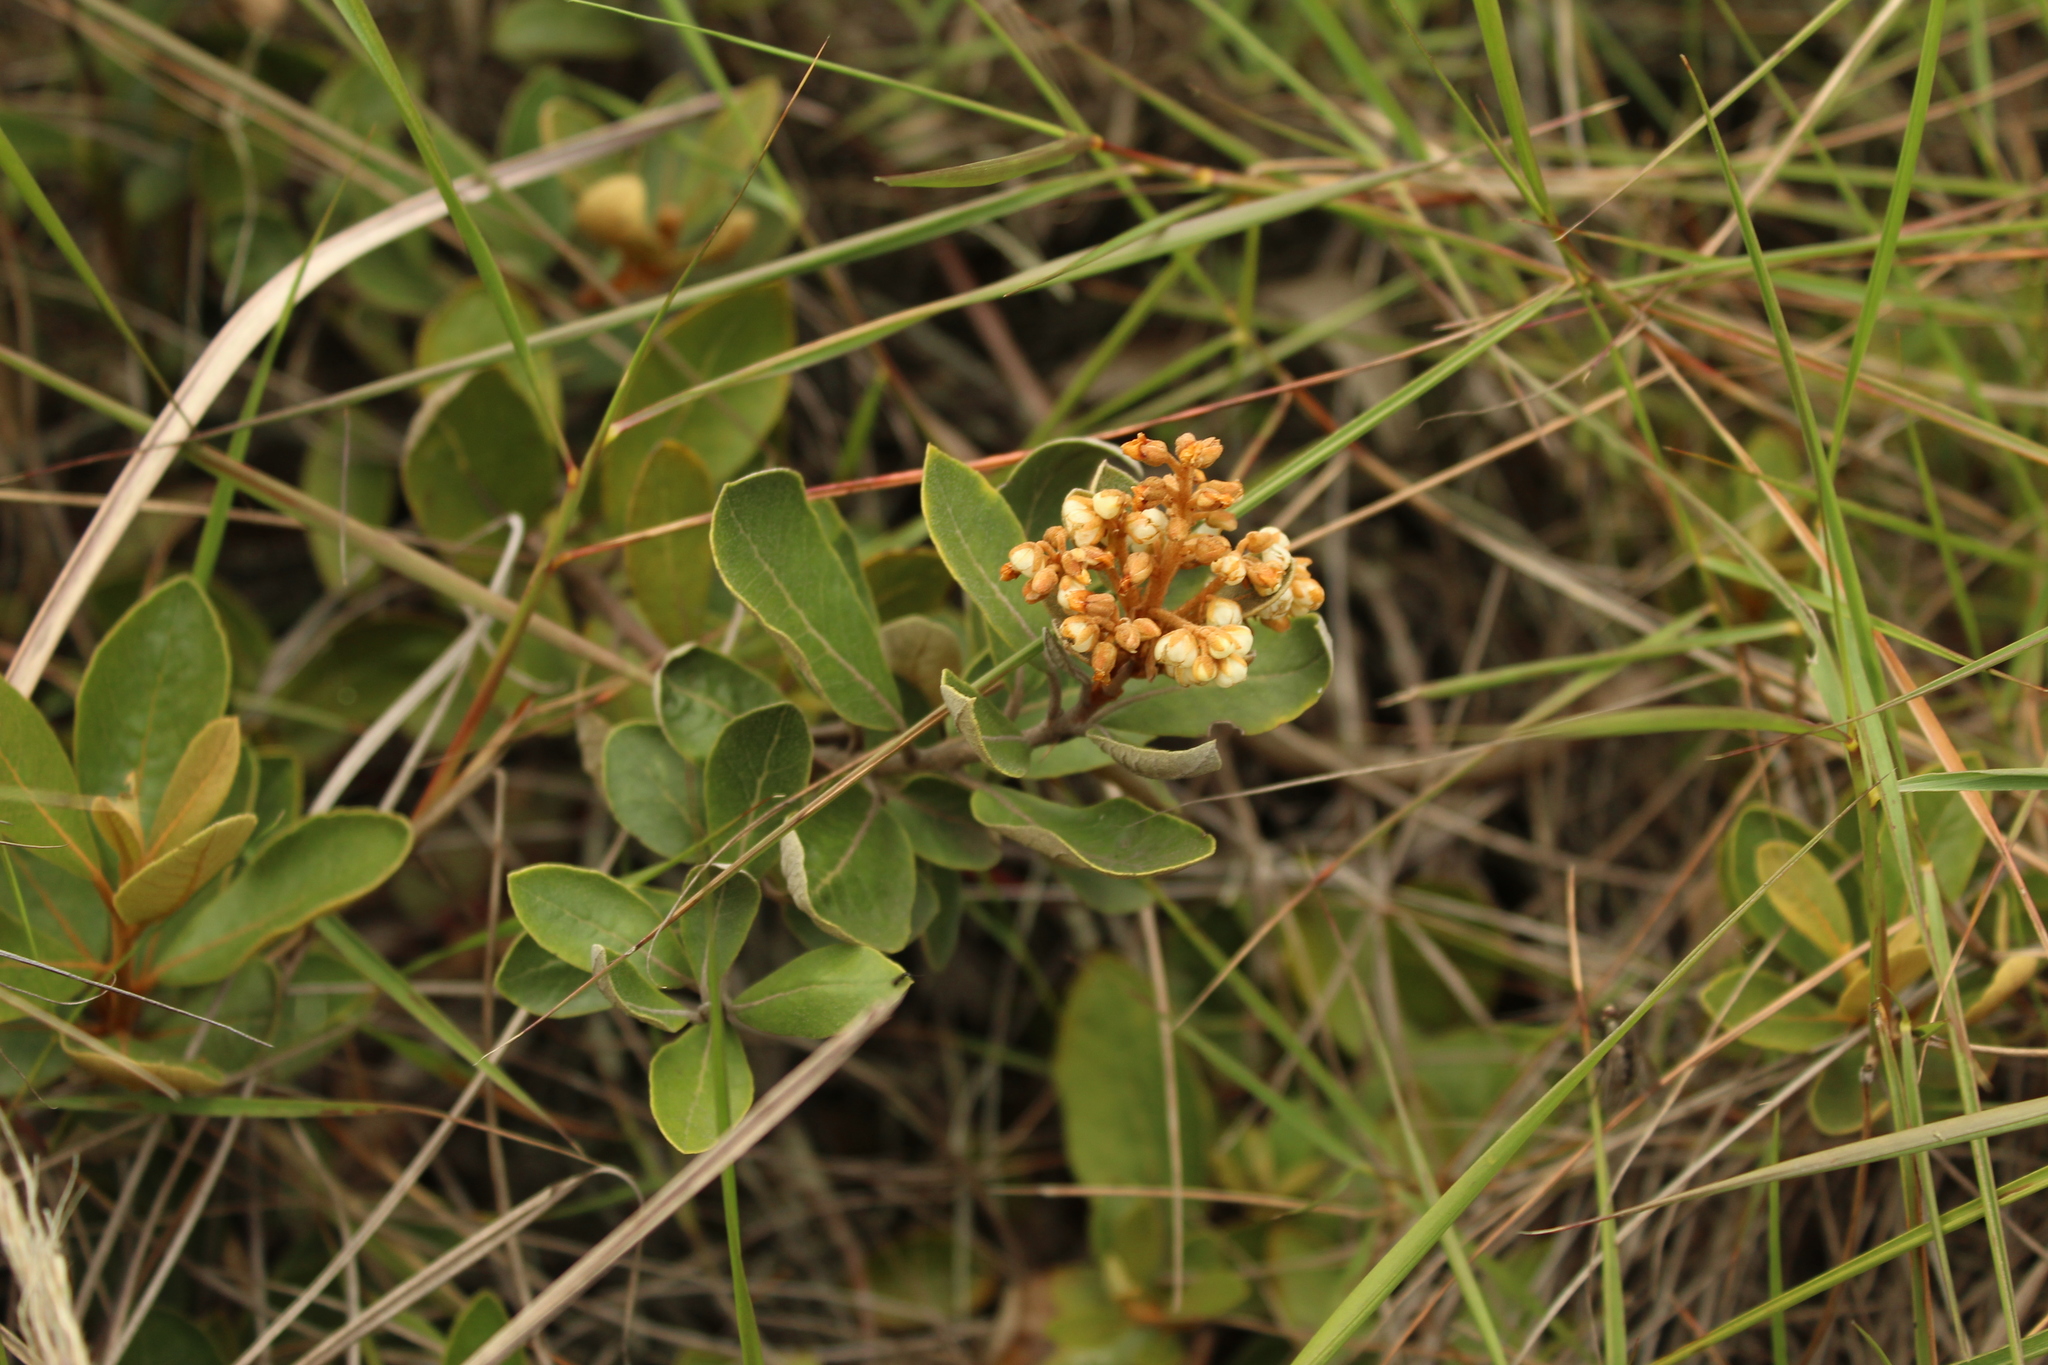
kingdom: Plantae
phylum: Tracheophyta
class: Magnoliopsida
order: Ericales
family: Clethraceae
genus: Clethra
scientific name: Clethra fimbriata
